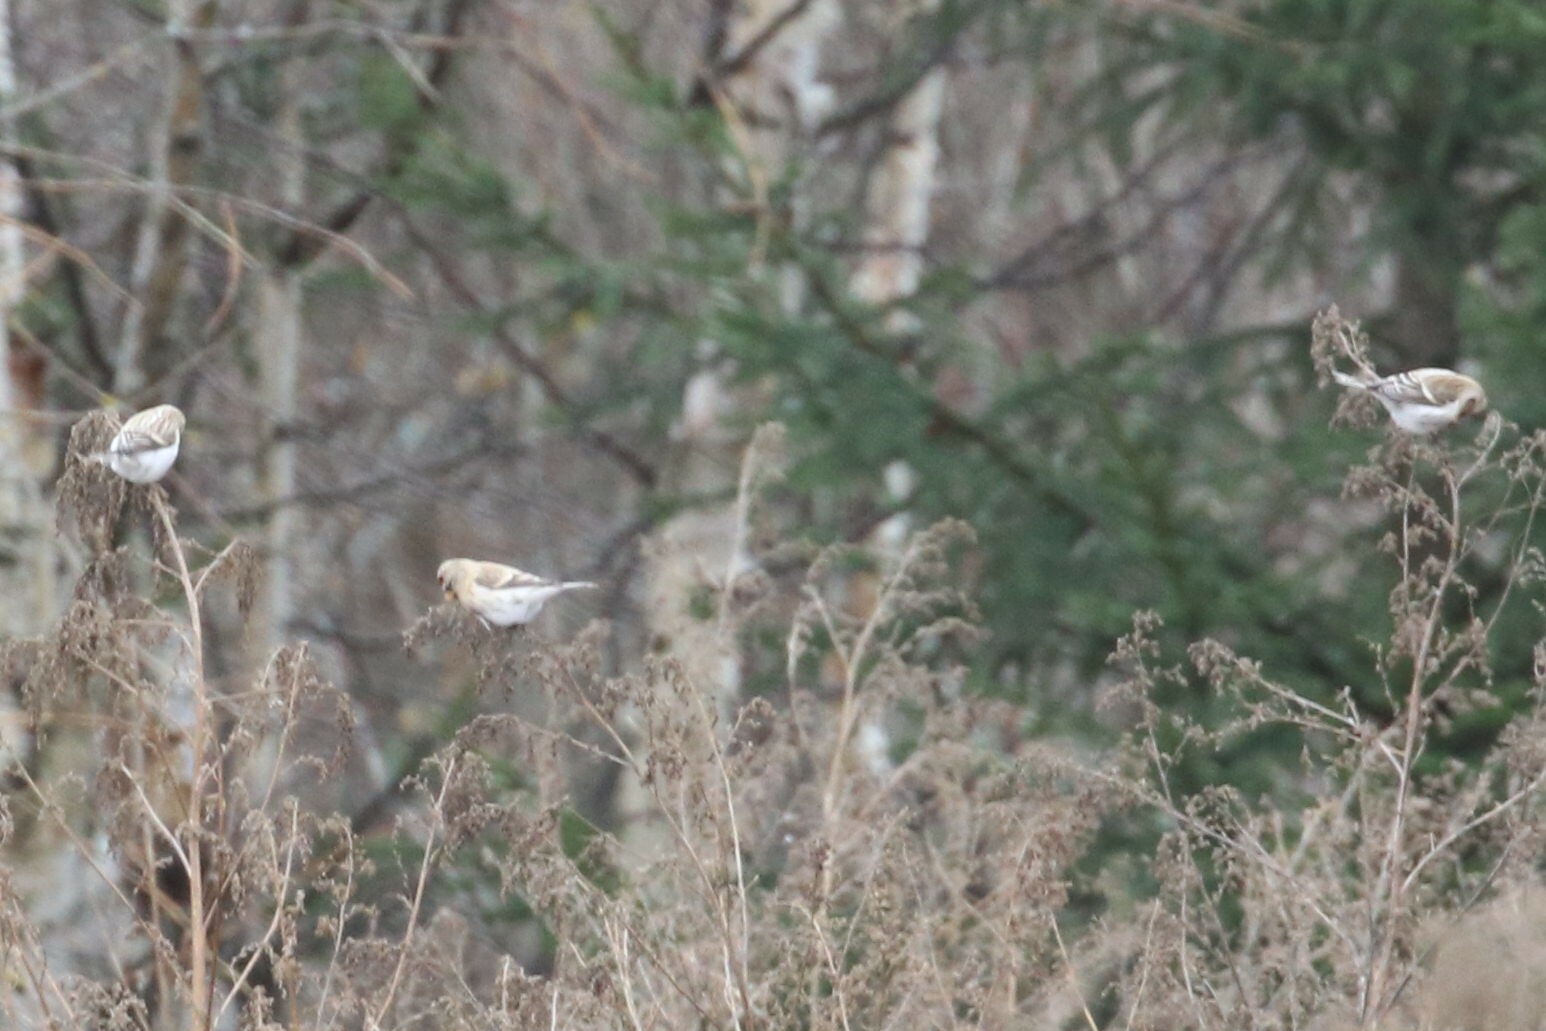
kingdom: Animalia
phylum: Chordata
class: Aves
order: Passeriformes
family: Fringillidae
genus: Acanthis
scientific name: Acanthis flammea
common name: Common redpoll
